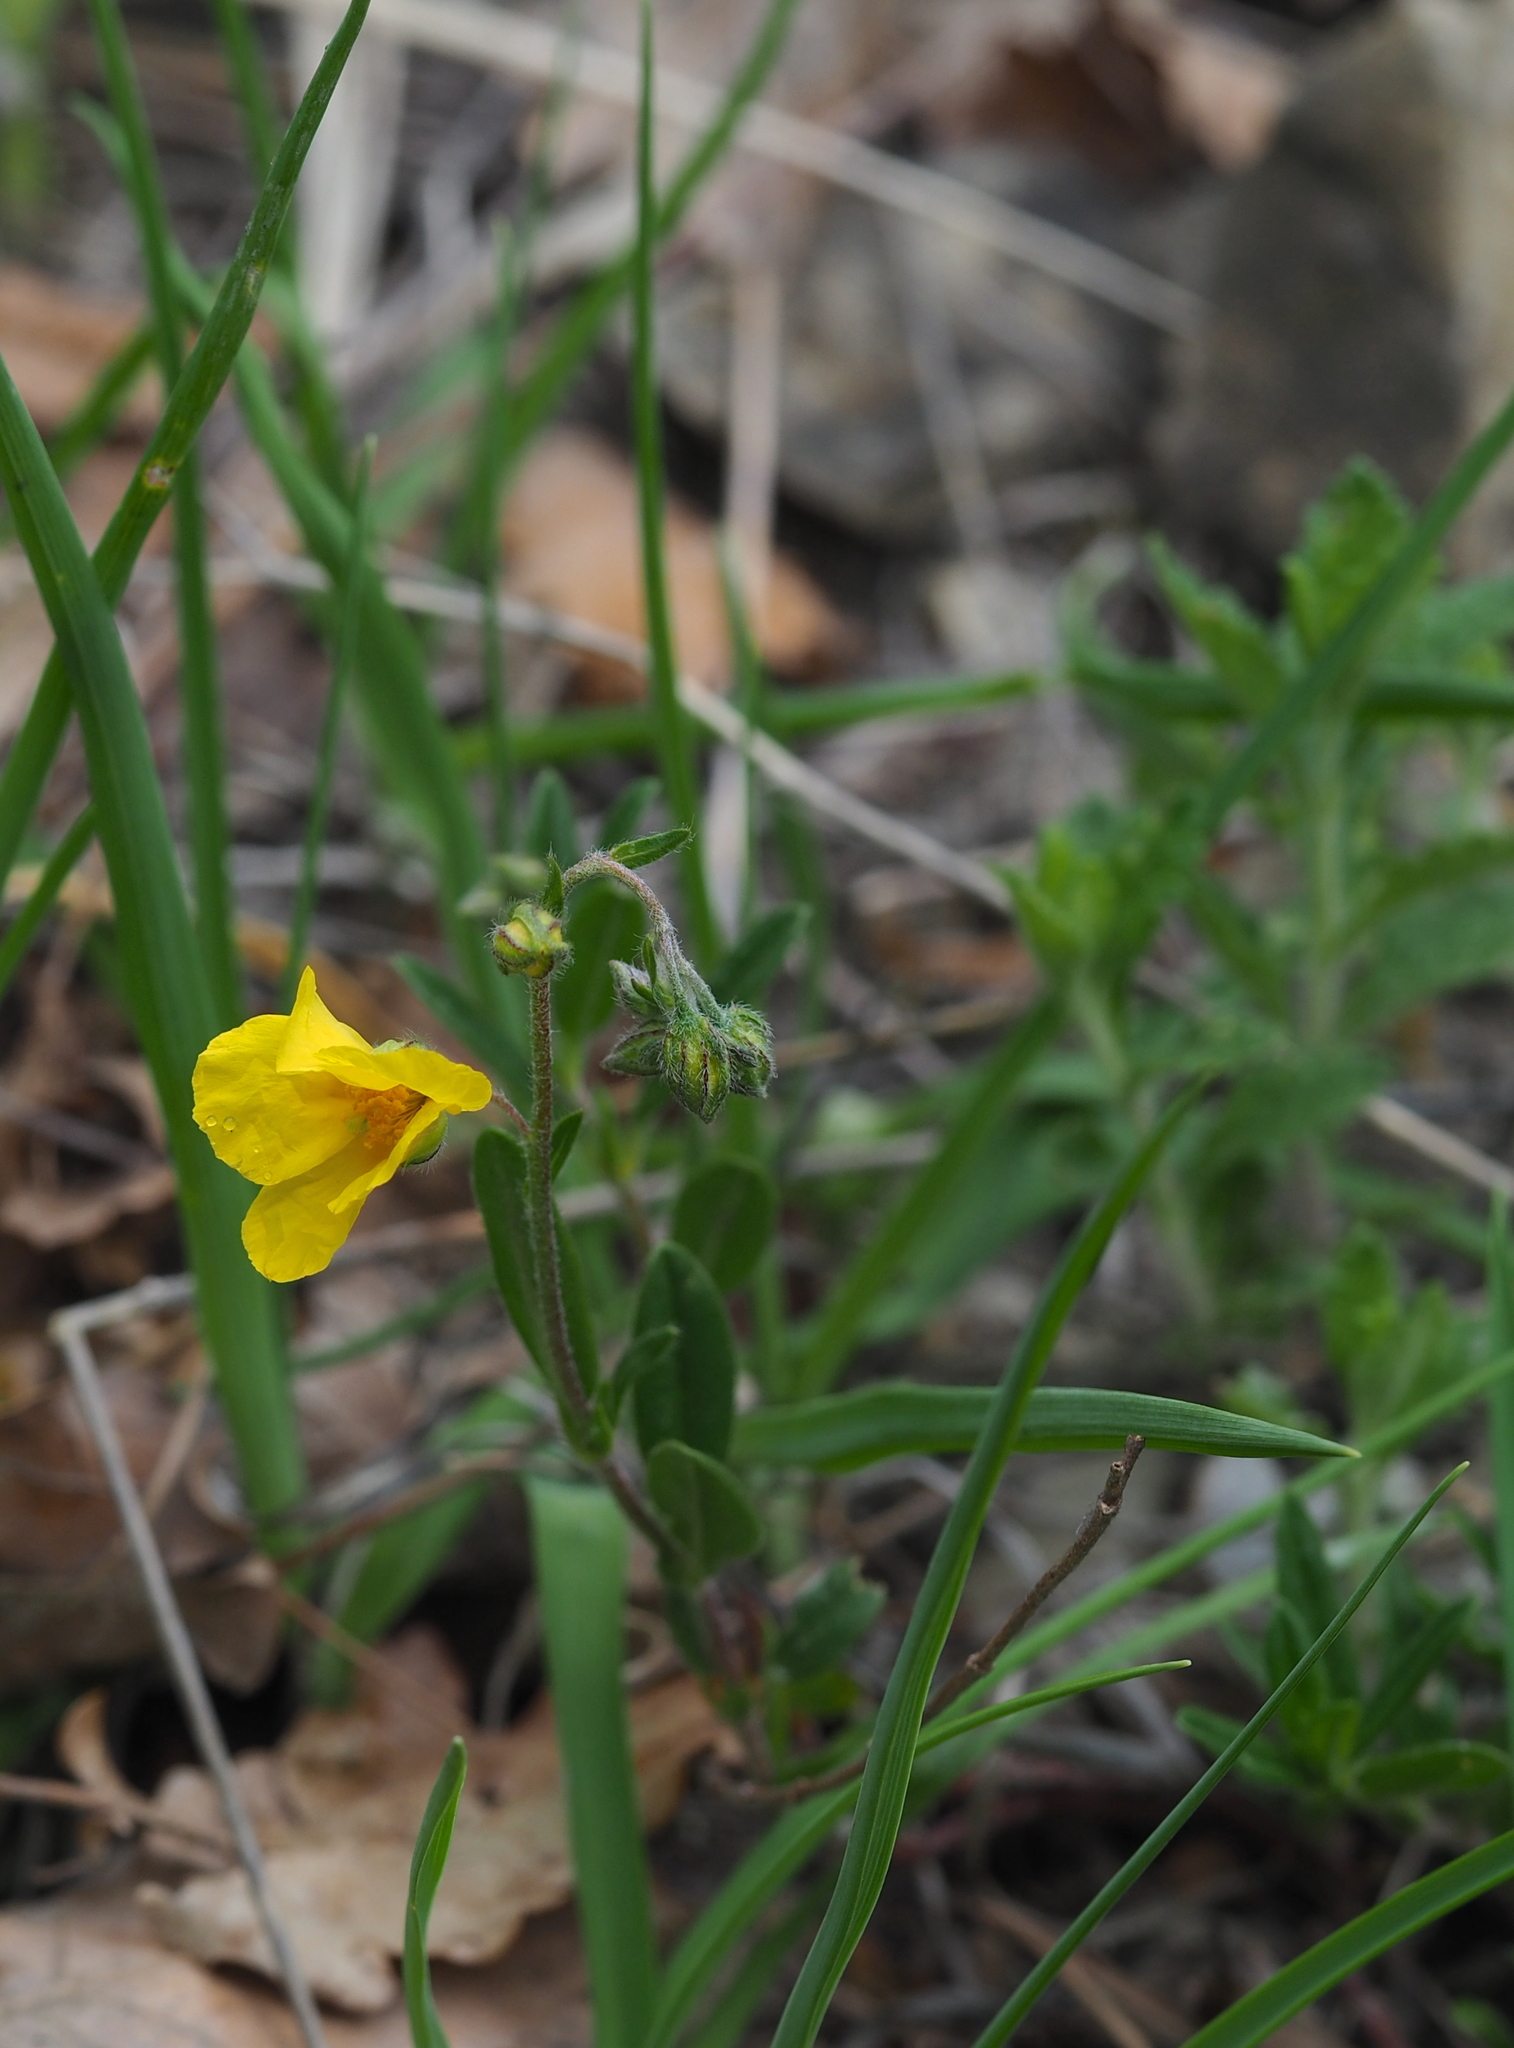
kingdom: Plantae
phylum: Tracheophyta
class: Magnoliopsida
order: Malvales
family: Cistaceae
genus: Helianthemum
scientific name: Helianthemum nummularium
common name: Common rock-rose
